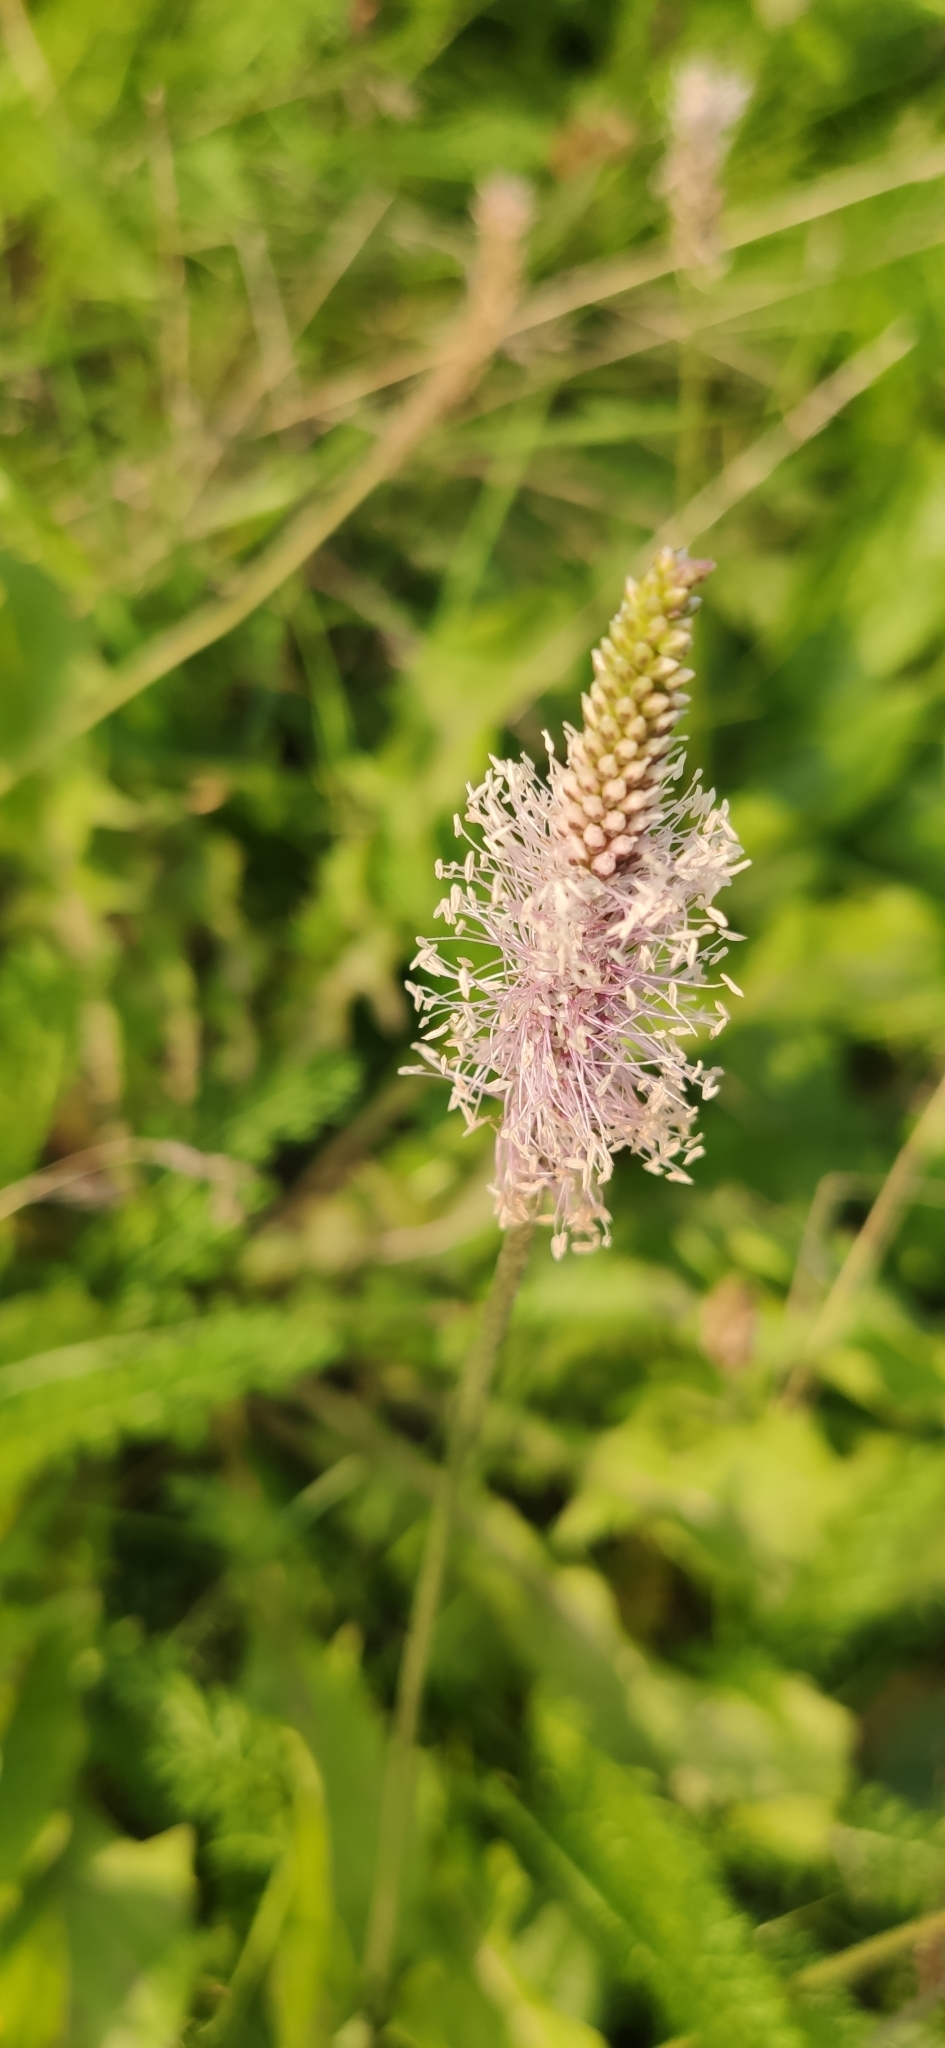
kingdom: Plantae
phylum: Tracheophyta
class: Magnoliopsida
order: Lamiales
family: Plantaginaceae
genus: Plantago
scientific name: Plantago media
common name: Hoary plantain
